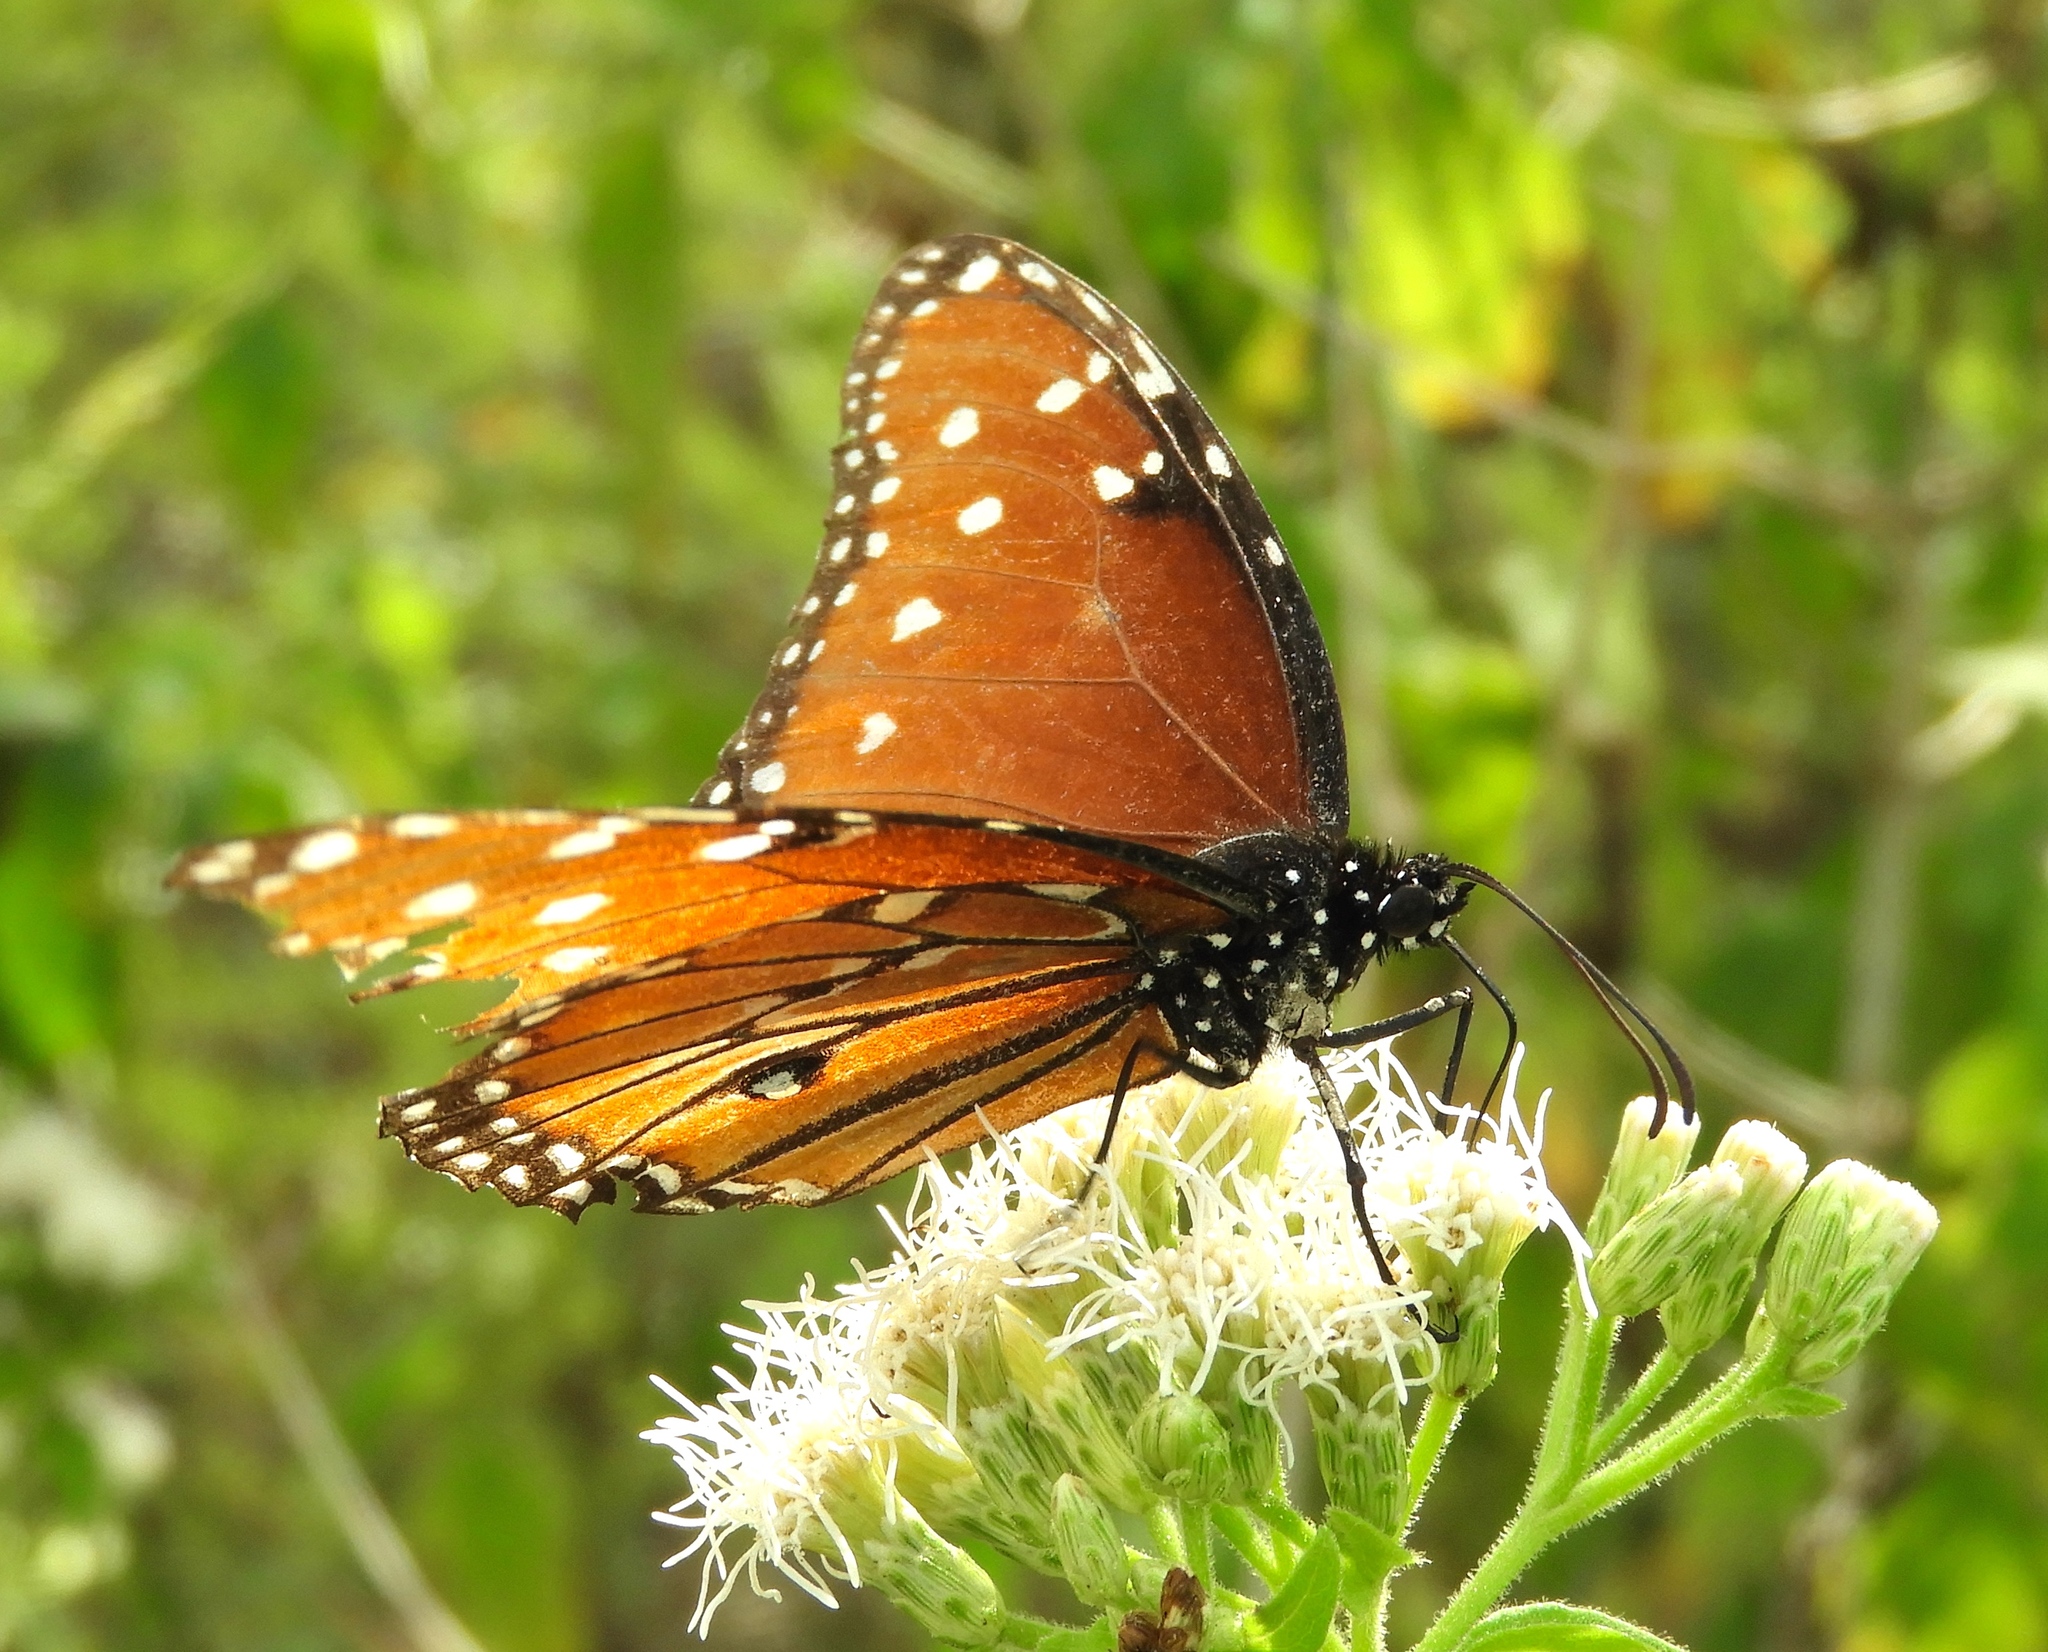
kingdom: Animalia
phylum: Arthropoda
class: Insecta
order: Lepidoptera
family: Nymphalidae
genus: Danaus
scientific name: Danaus gilippus
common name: Queen
